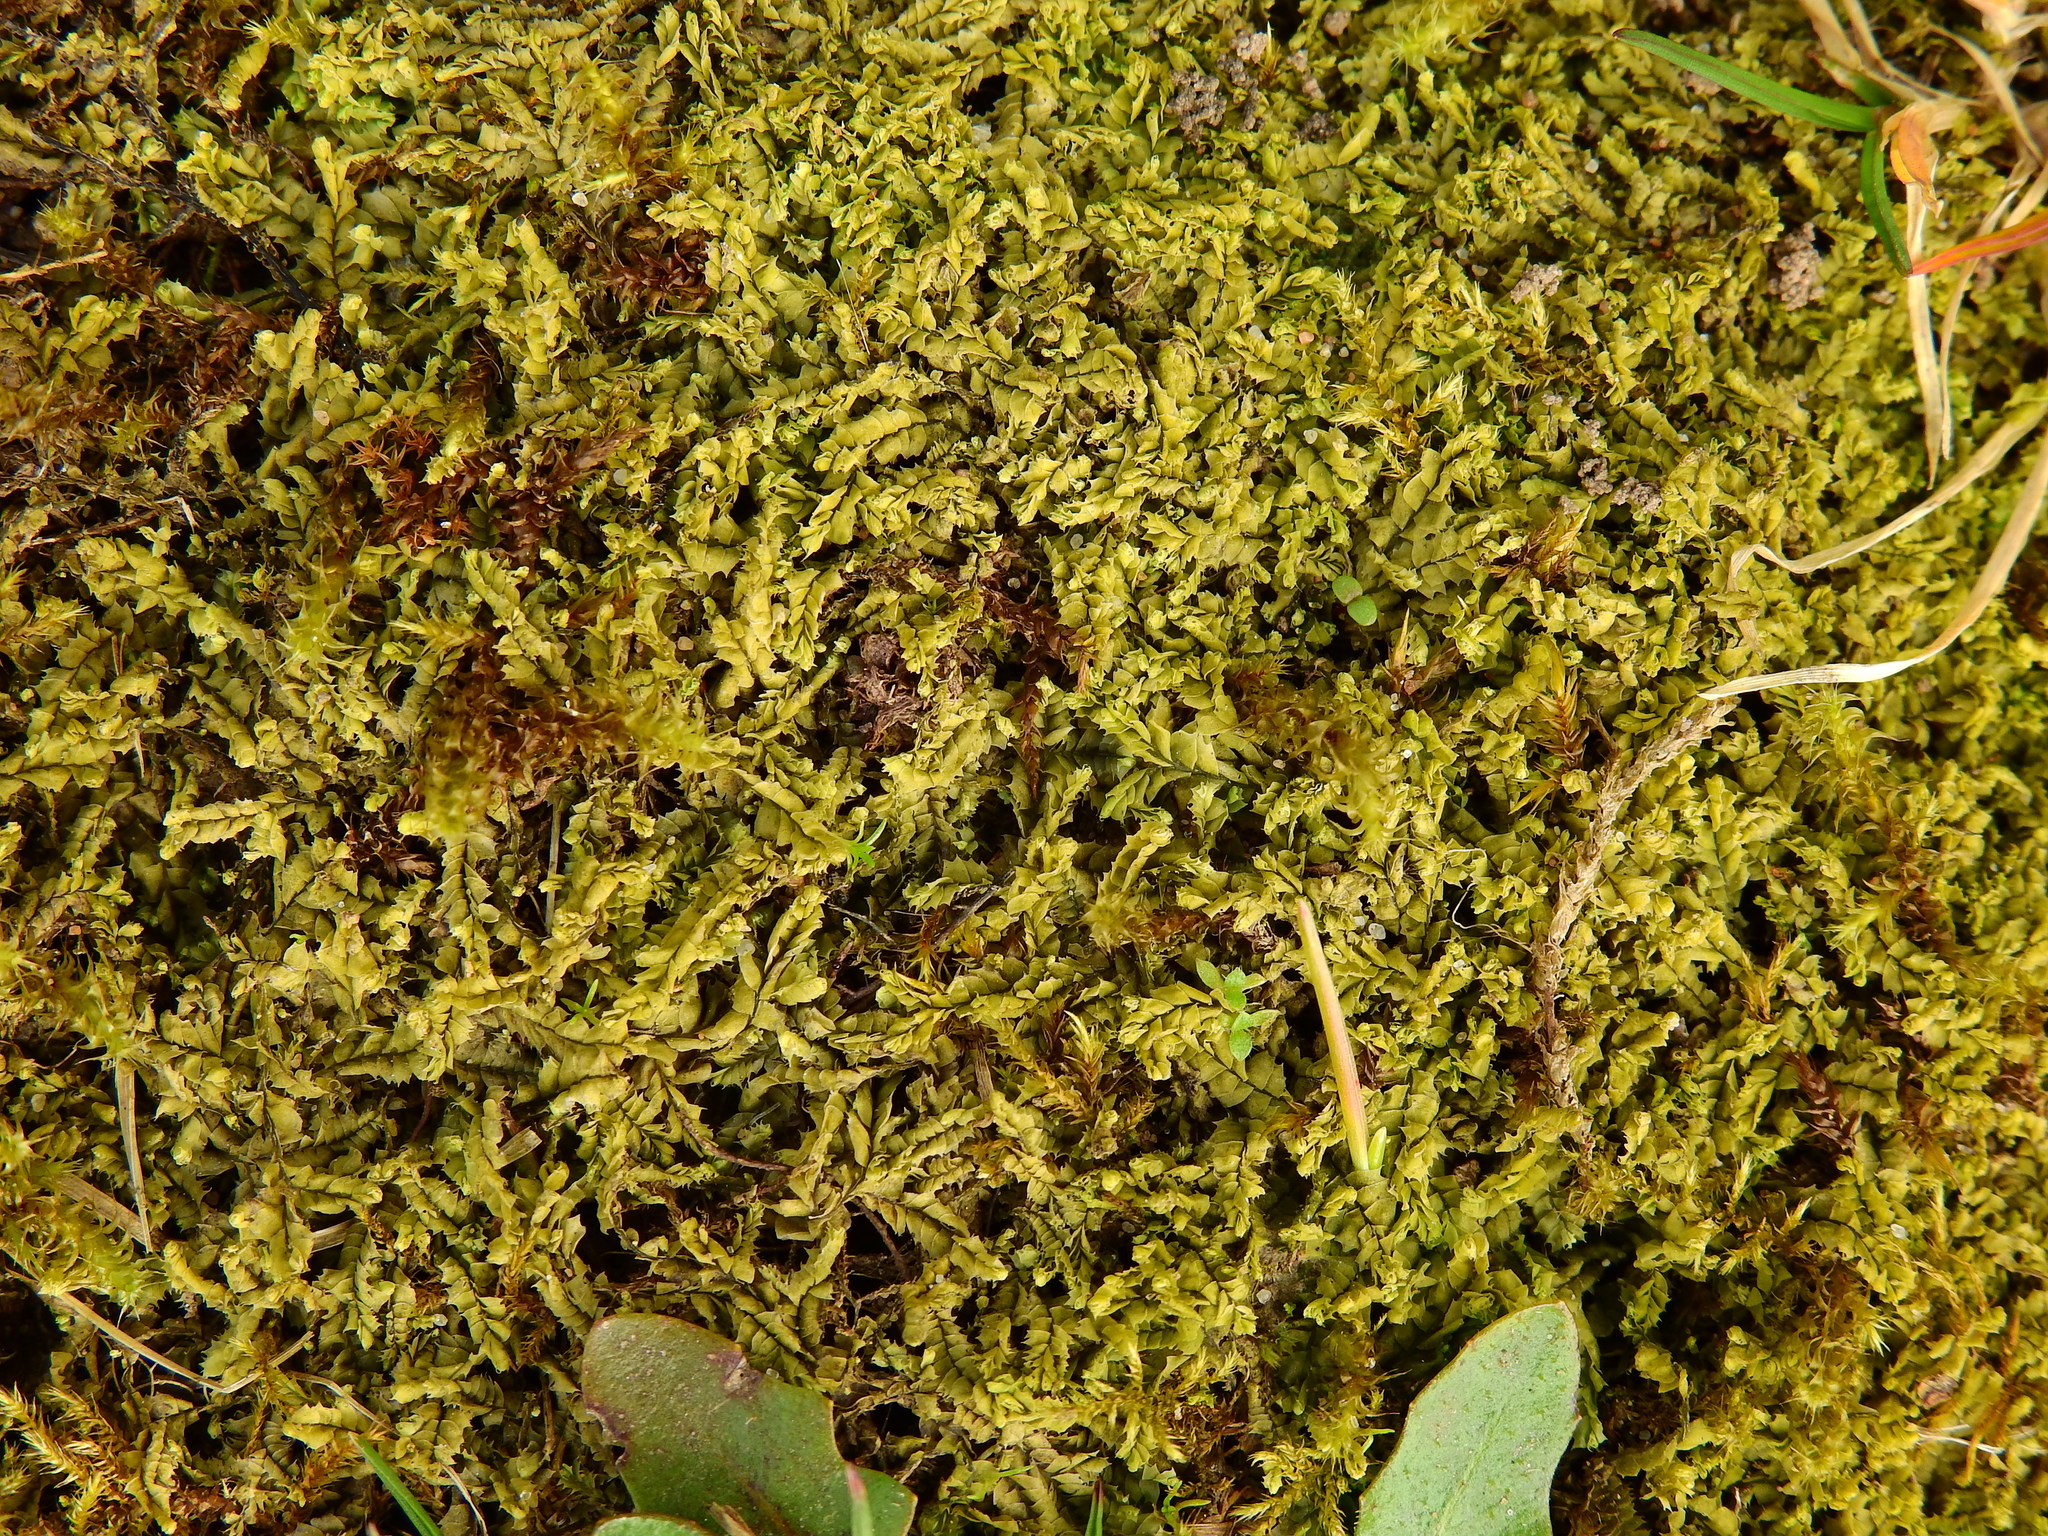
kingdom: Plantae
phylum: Marchantiophyta
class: Jungermanniopsida
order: Jungermanniales
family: Lophocoleaceae
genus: Lophocolea
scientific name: Lophocolea heterophylla
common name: Variable-leaved crestwort
